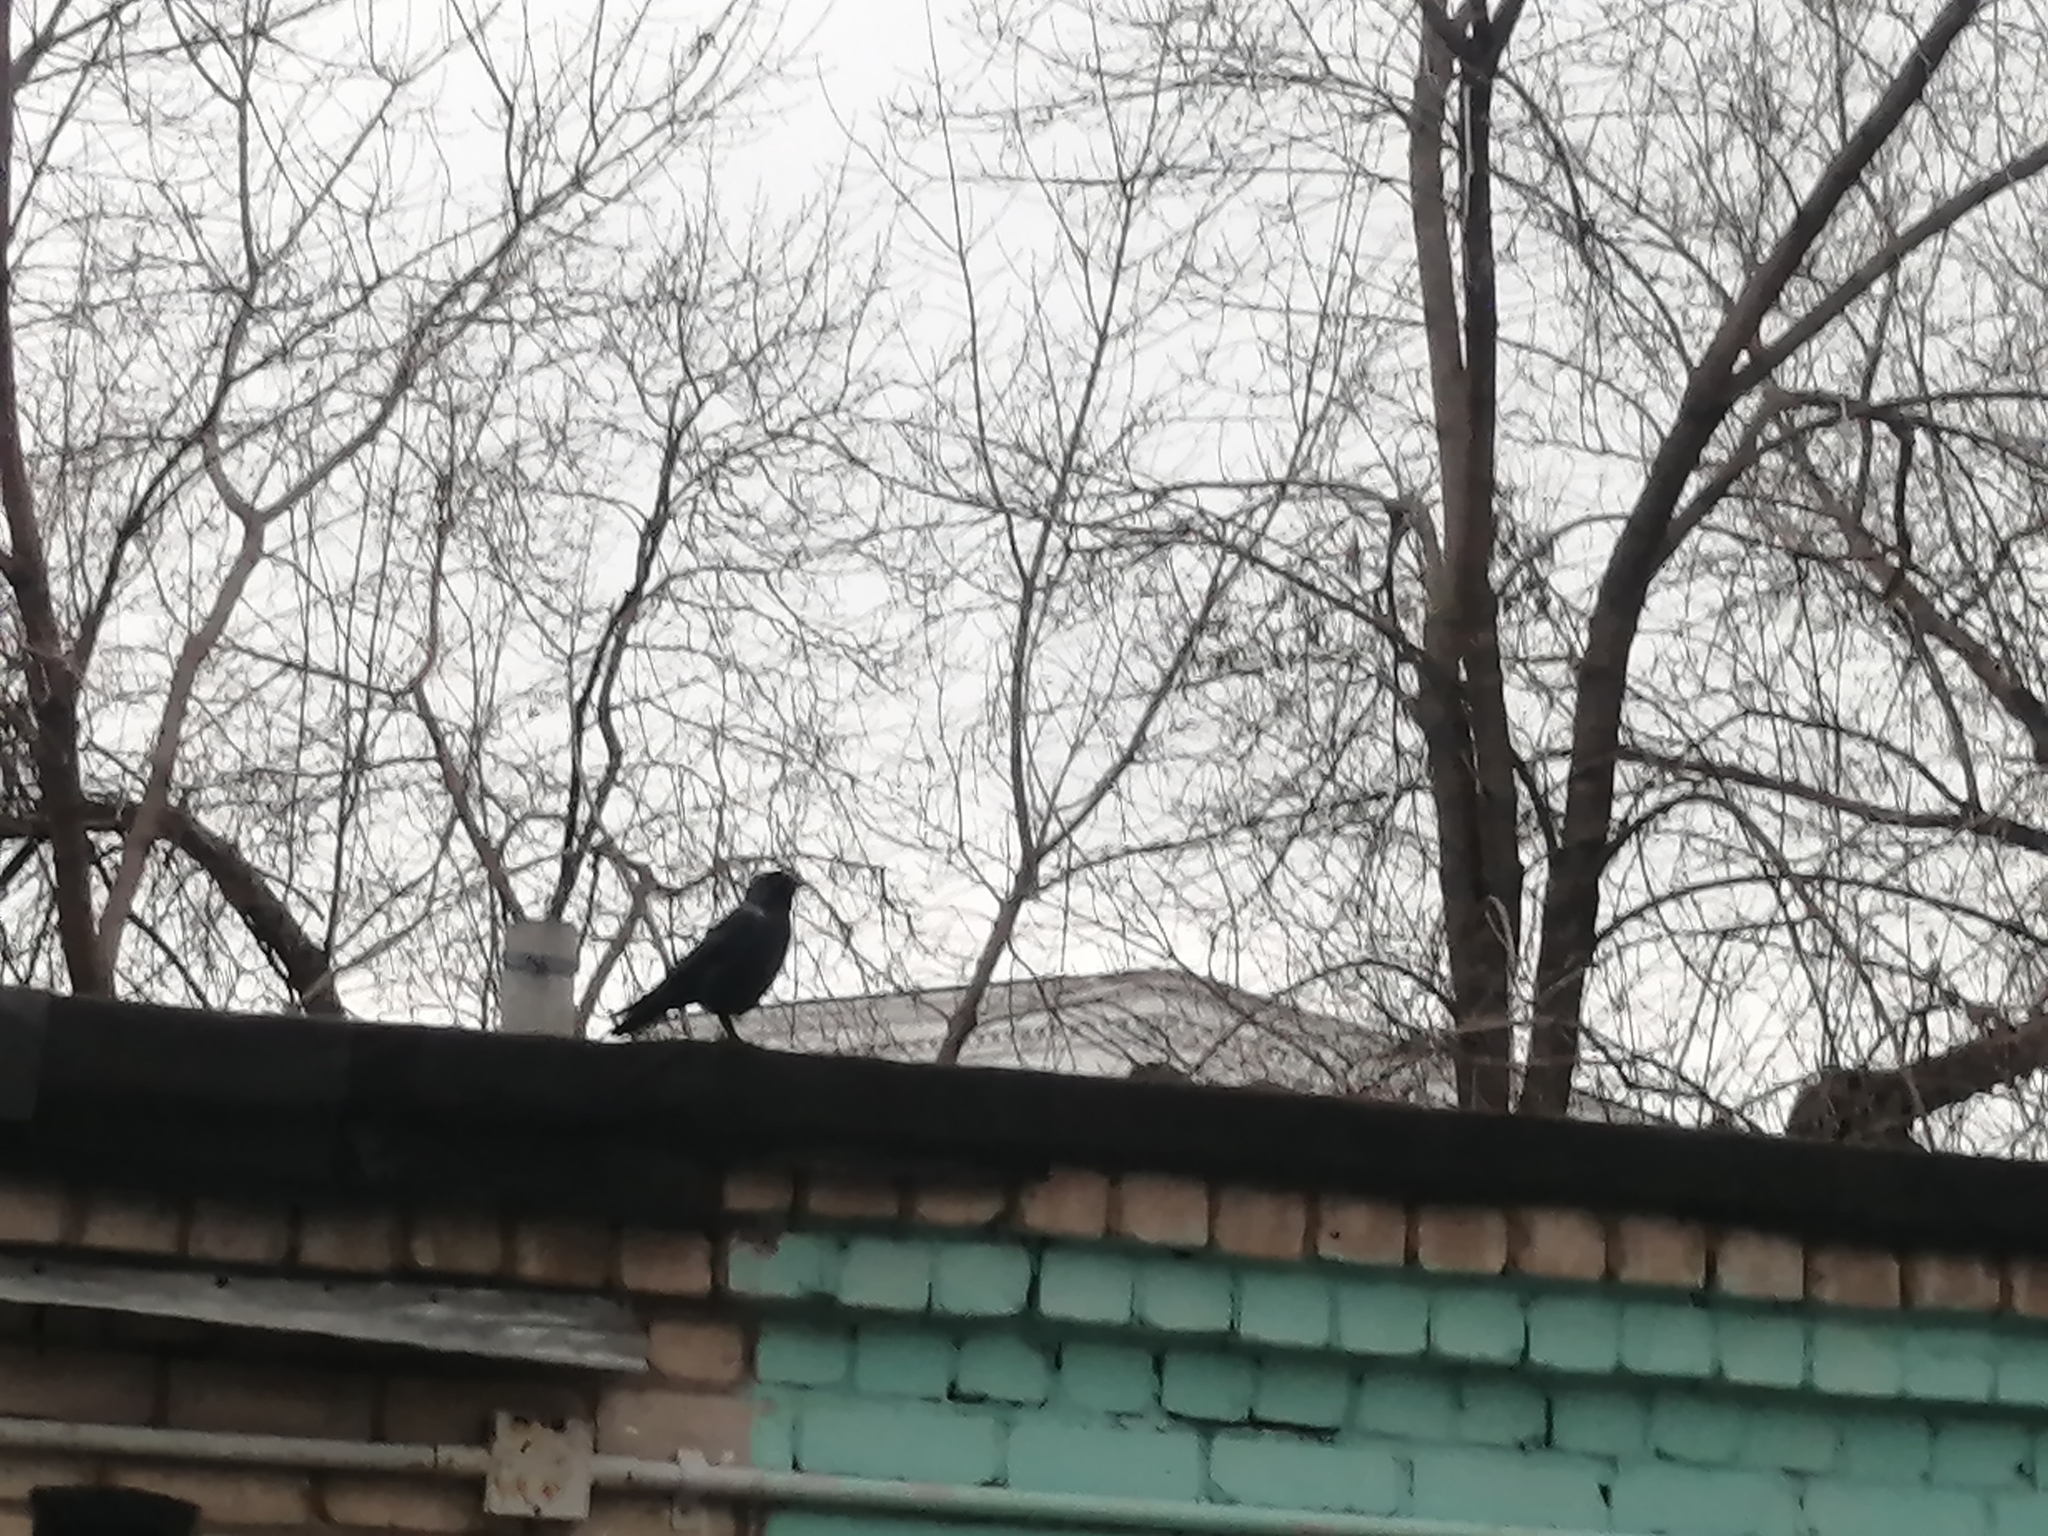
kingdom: Animalia
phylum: Chordata
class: Aves
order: Passeriformes
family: Corvidae
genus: Coloeus
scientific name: Coloeus monedula
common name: Western jackdaw
